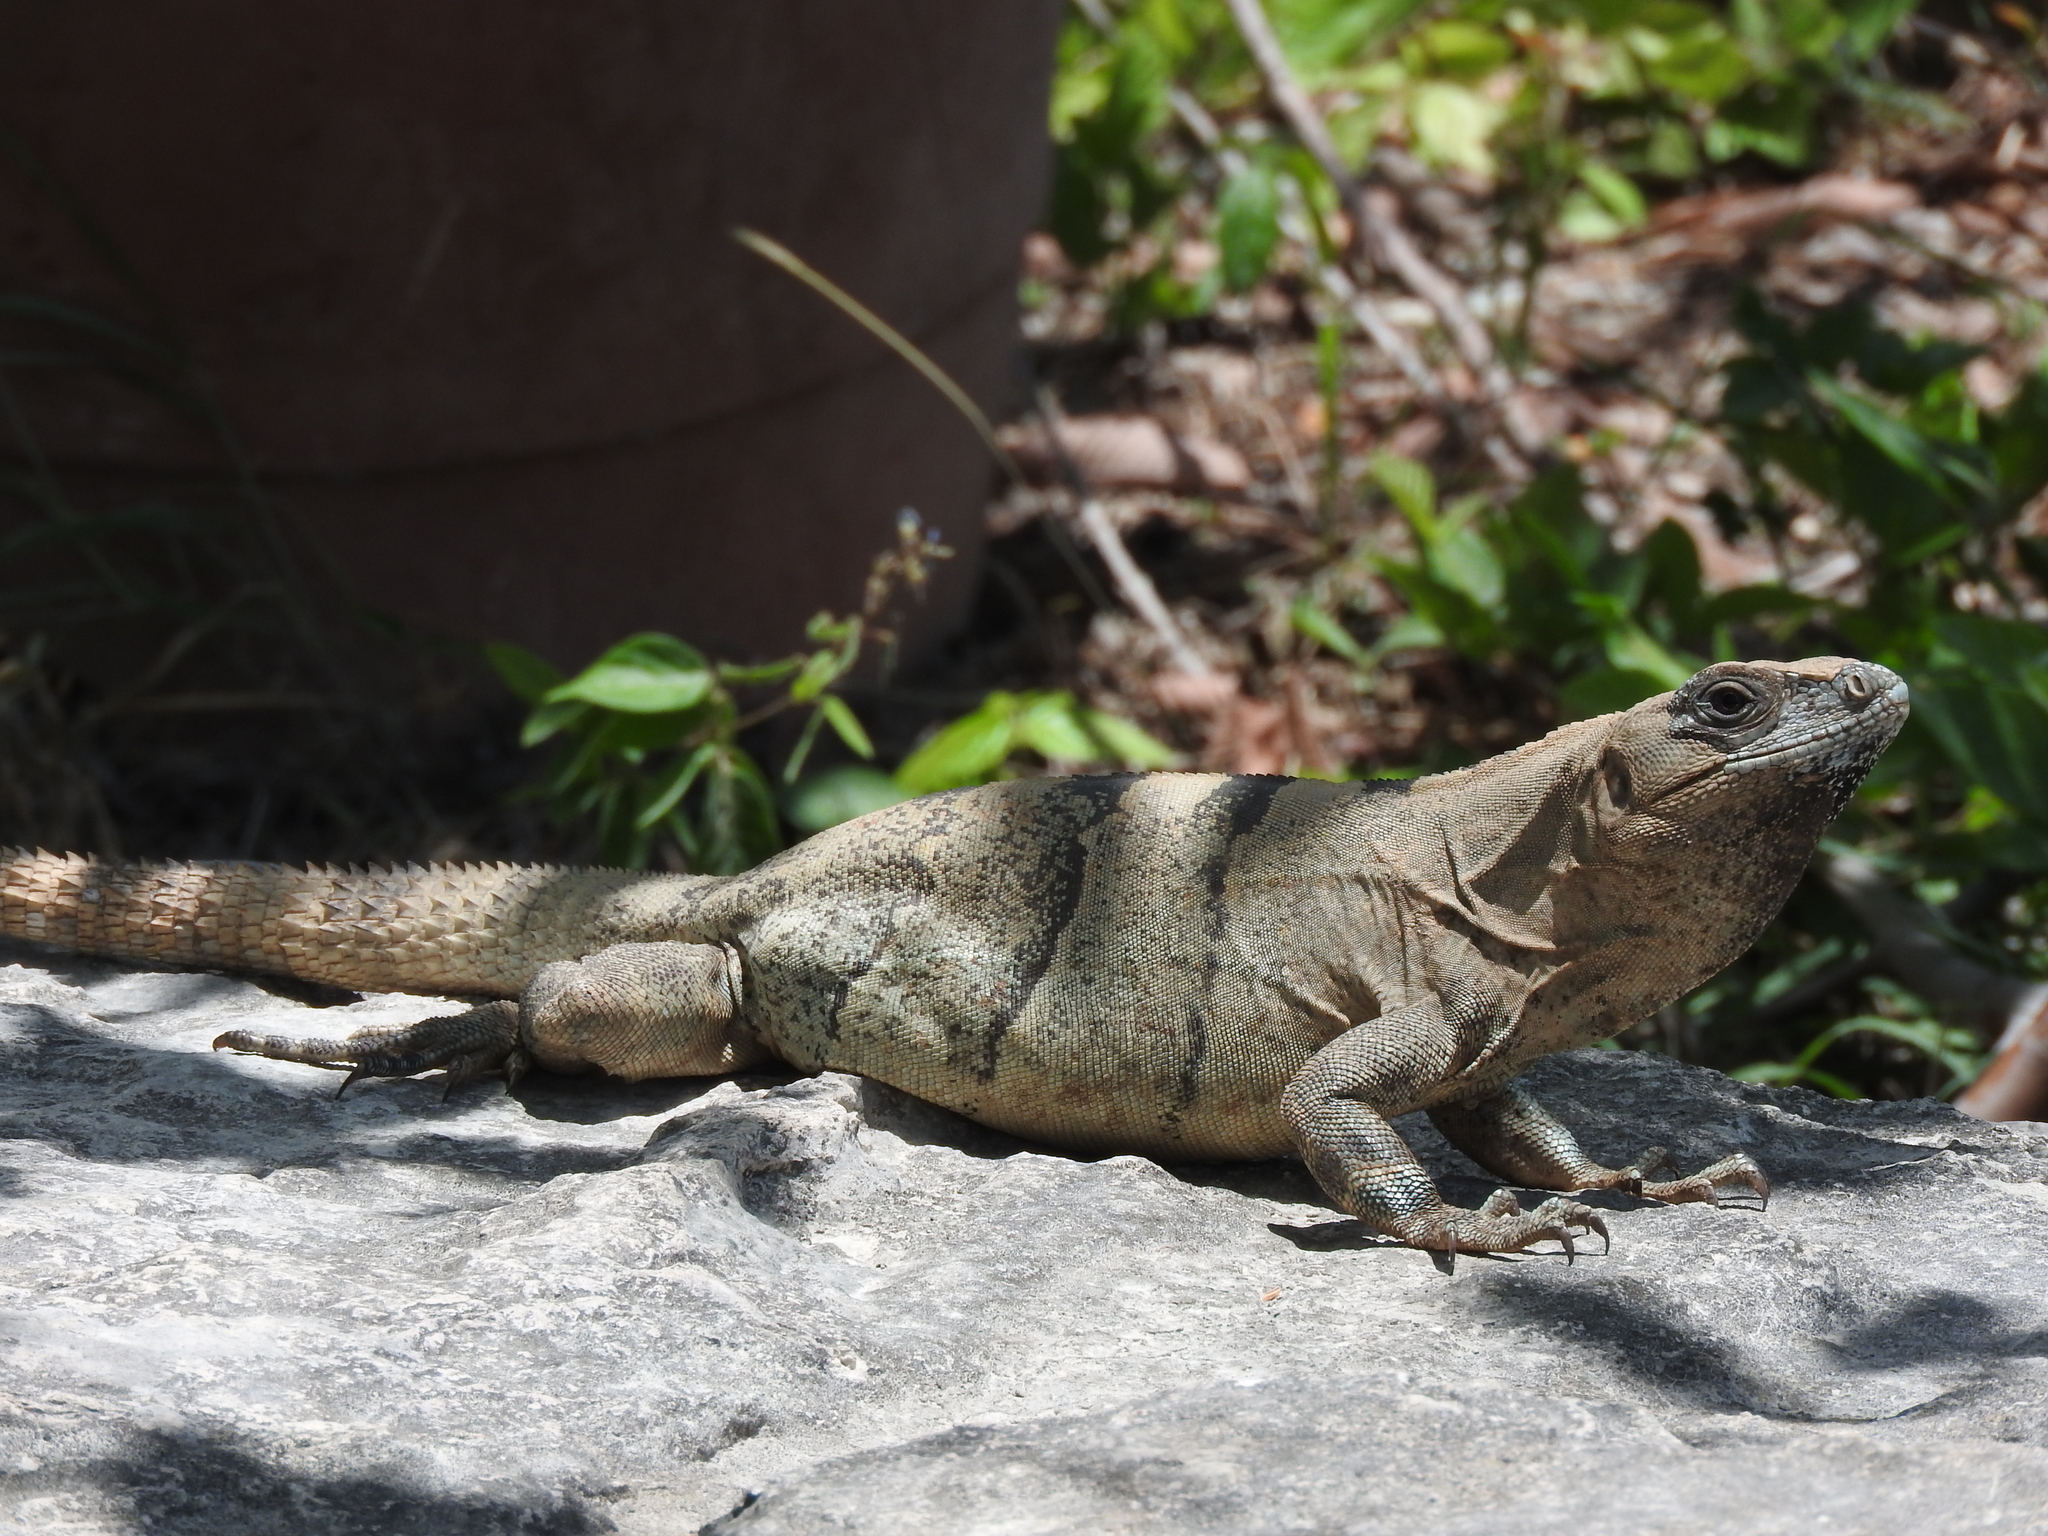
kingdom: Animalia
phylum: Chordata
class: Squamata
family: Iguanidae
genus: Ctenosaura
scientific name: Ctenosaura similis
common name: Black spiny-tailed iguana
